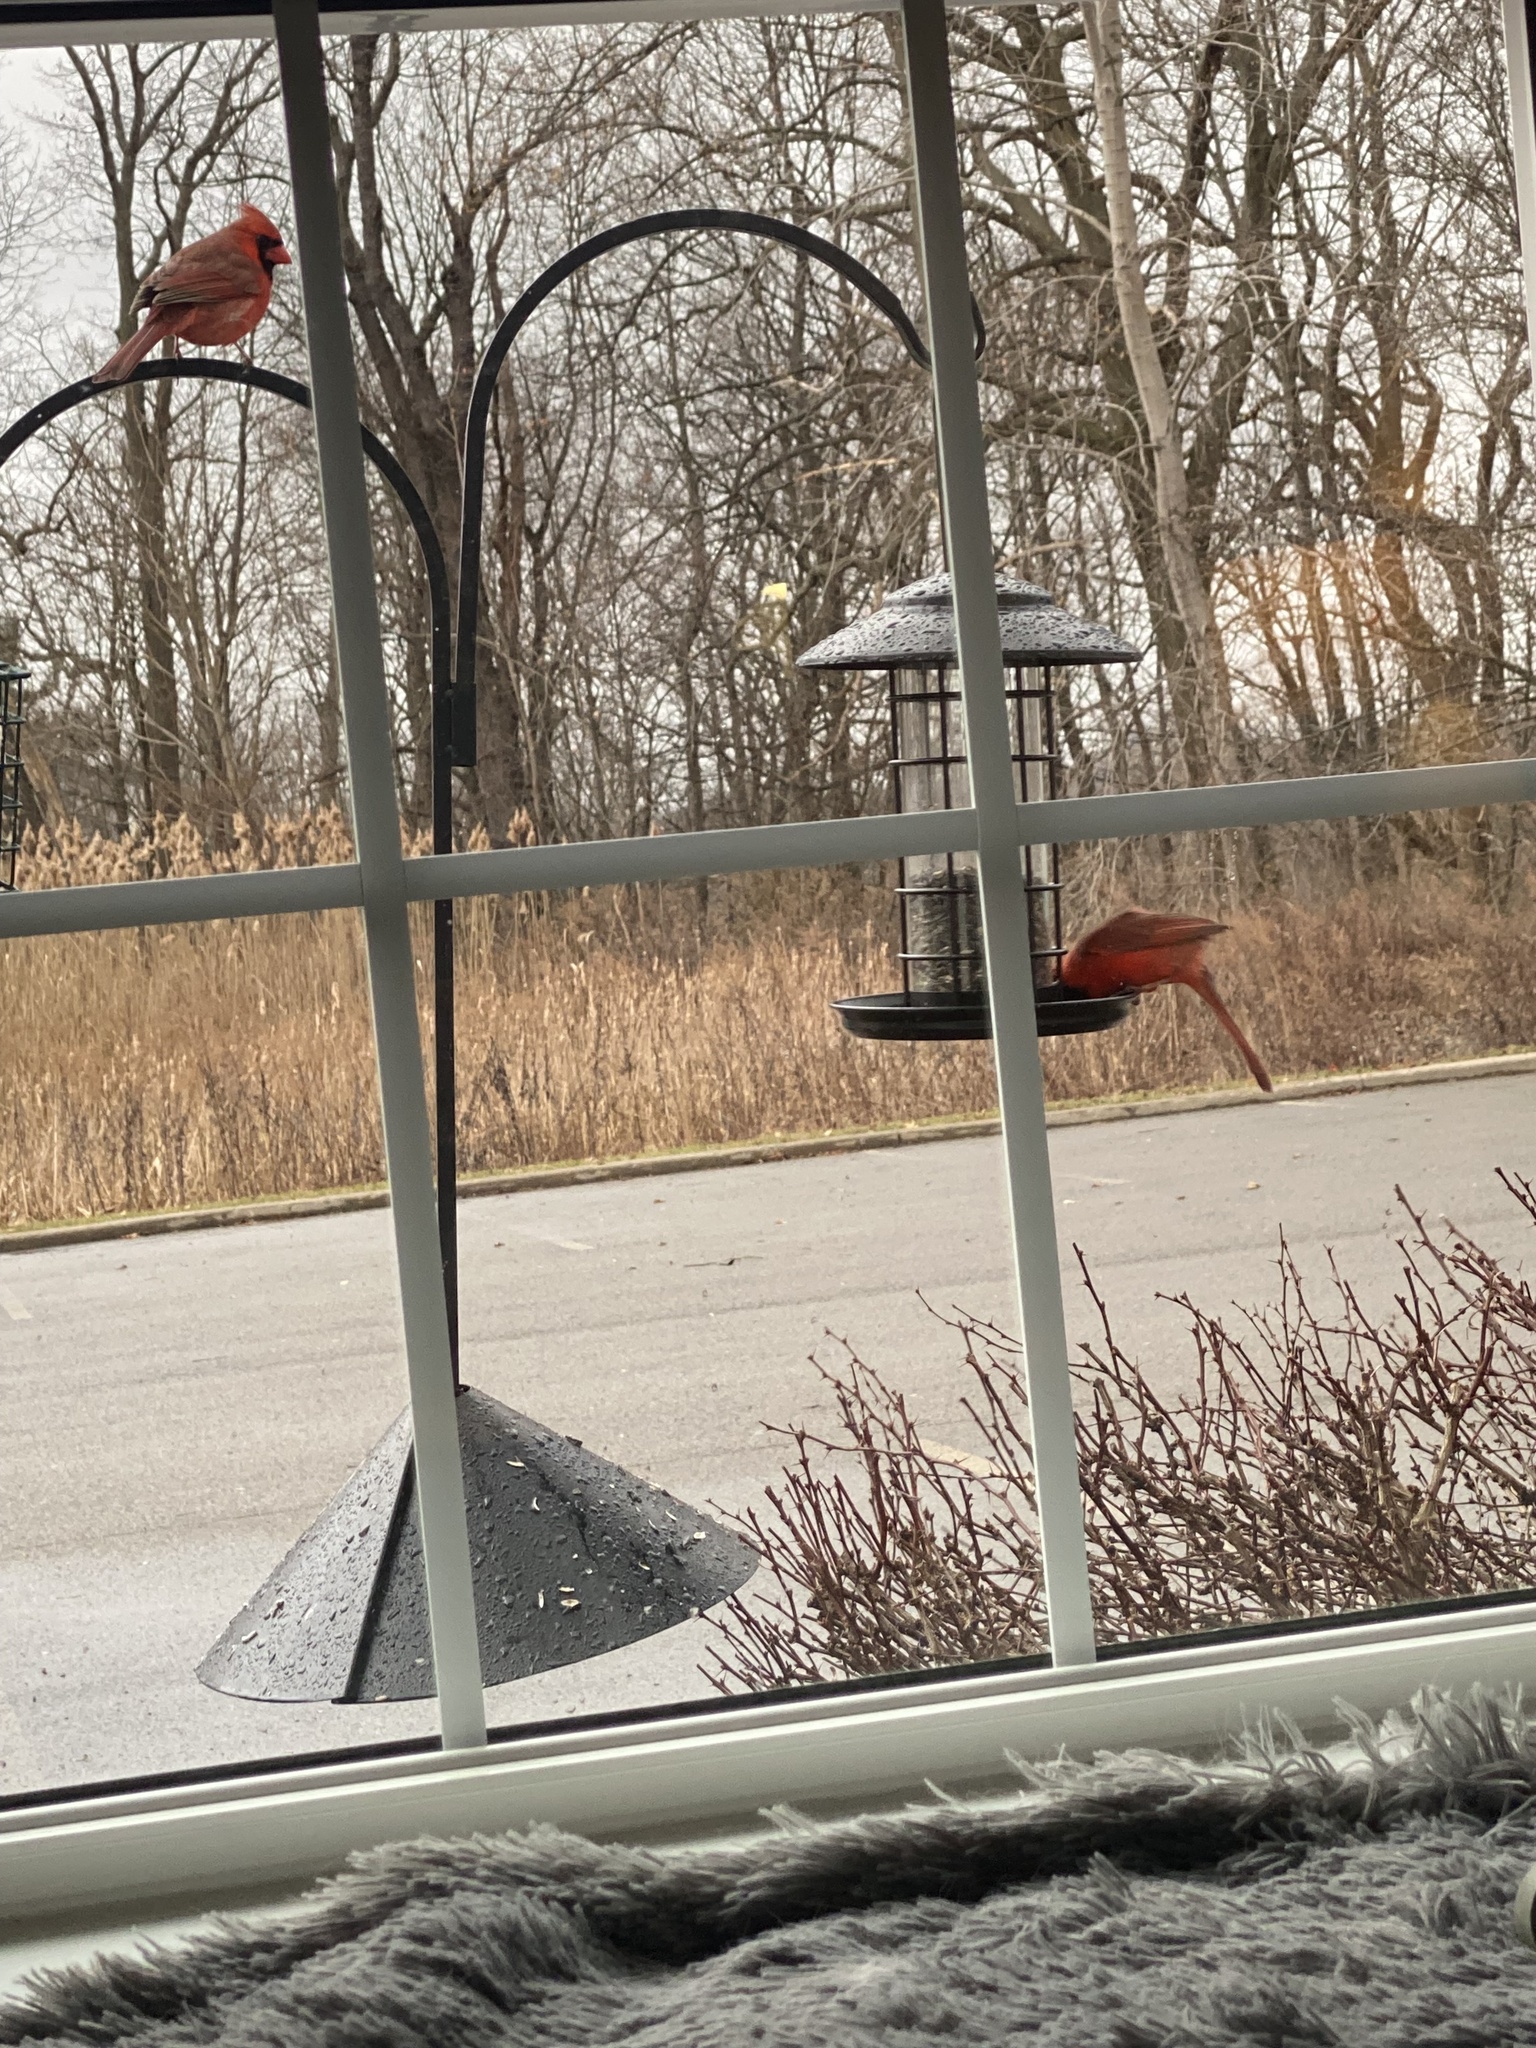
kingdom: Animalia
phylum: Chordata
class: Aves
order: Passeriformes
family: Cardinalidae
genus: Cardinalis
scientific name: Cardinalis cardinalis
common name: Northern cardinal
